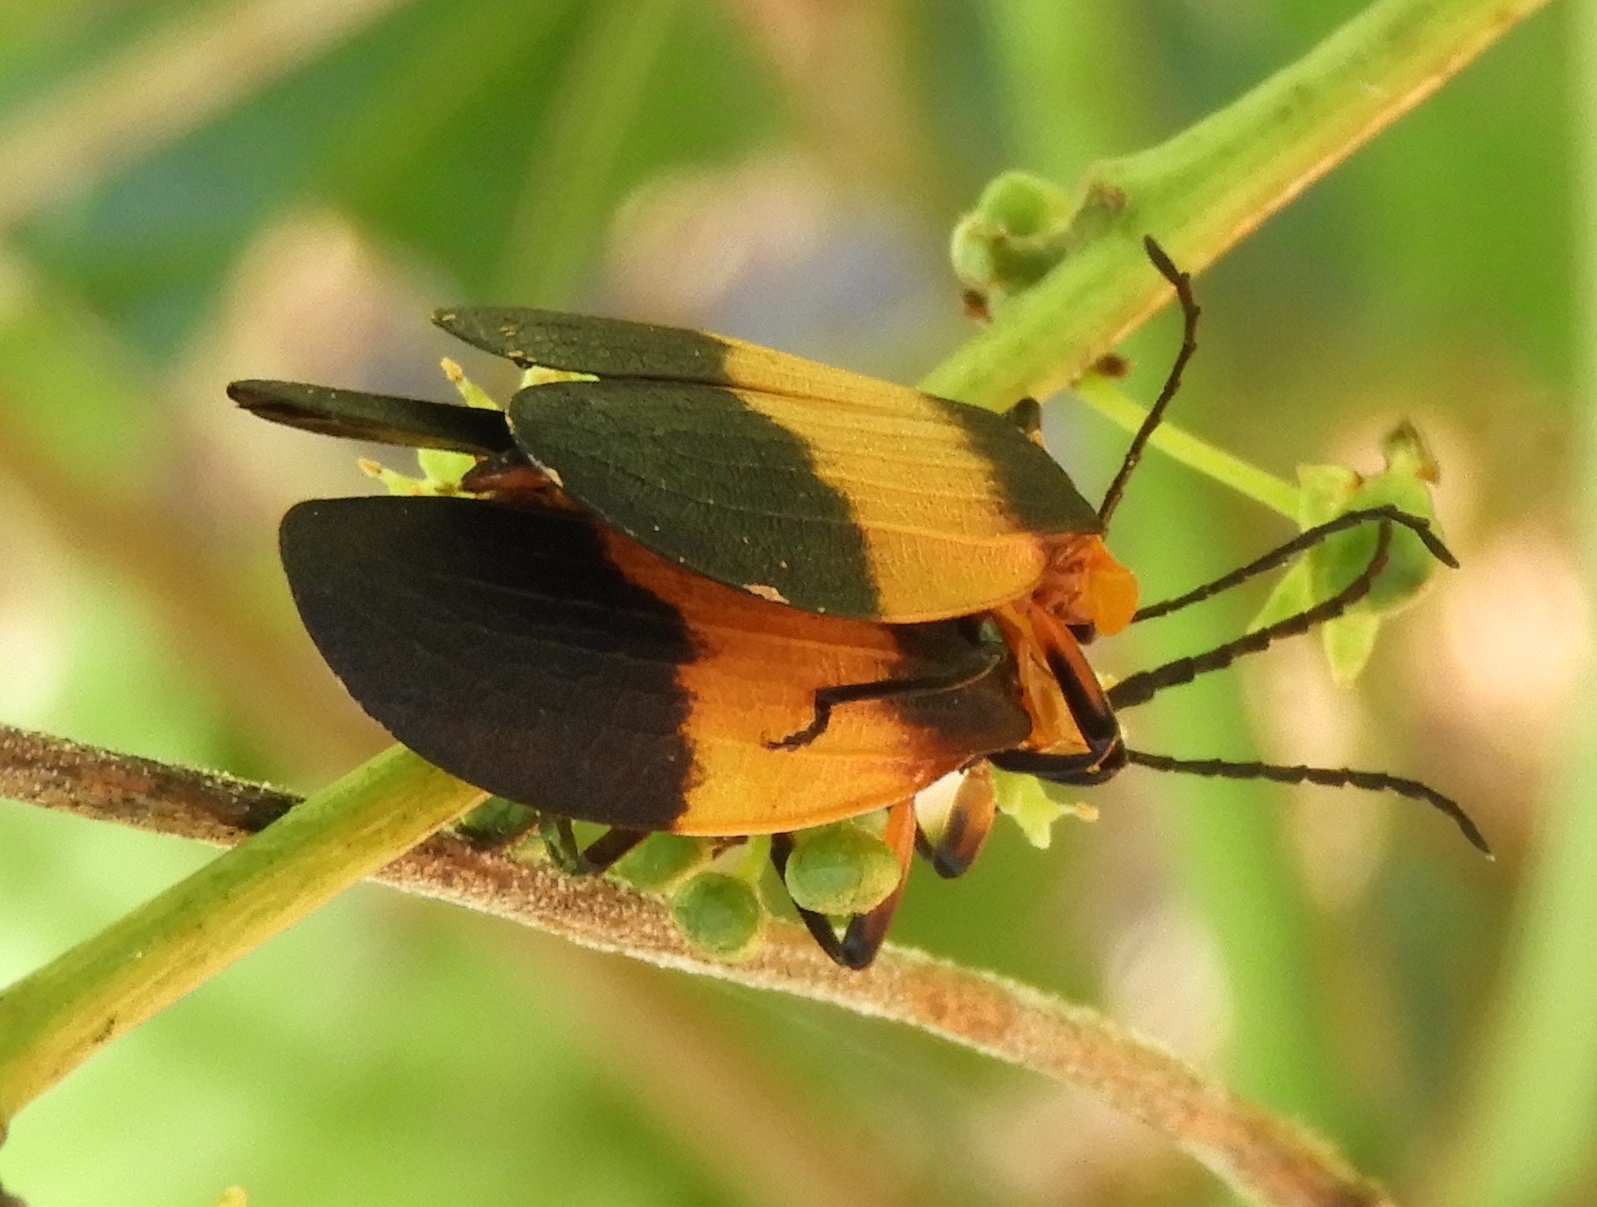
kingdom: Animalia
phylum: Arthropoda
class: Insecta
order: Coleoptera
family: Lycidae
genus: Lycus
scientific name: Lycus
